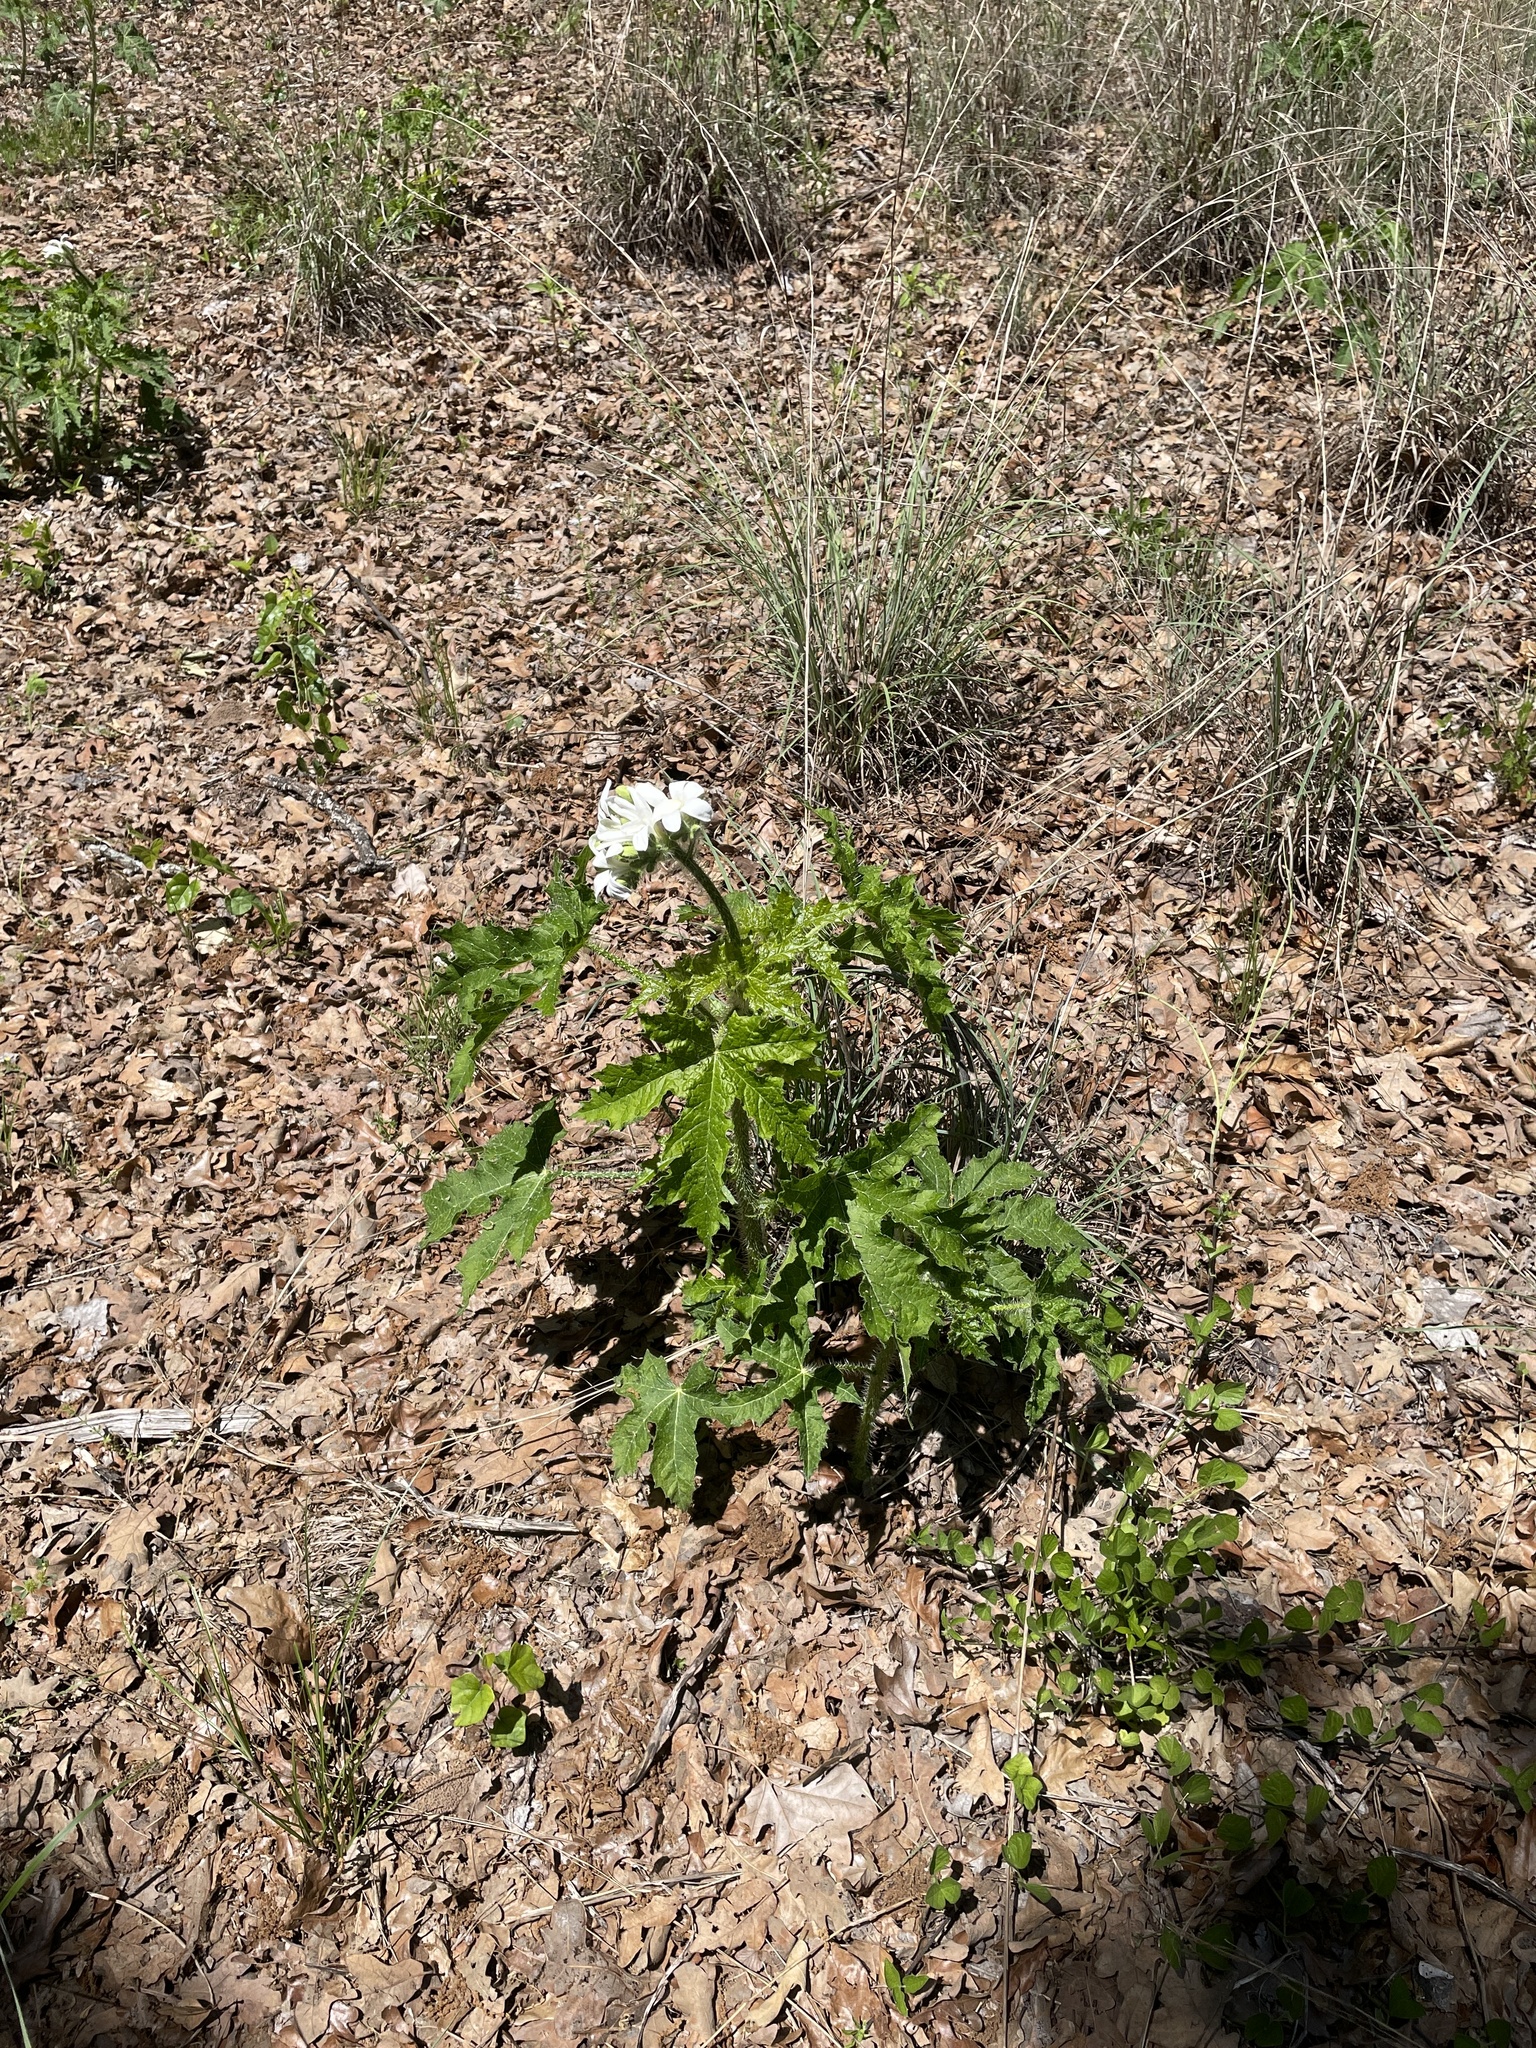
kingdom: Plantae
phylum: Tracheophyta
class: Magnoliopsida
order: Malpighiales
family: Euphorbiaceae
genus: Cnidoscolus
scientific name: Cnidoscolus texanus
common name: Texas bull-nettle
